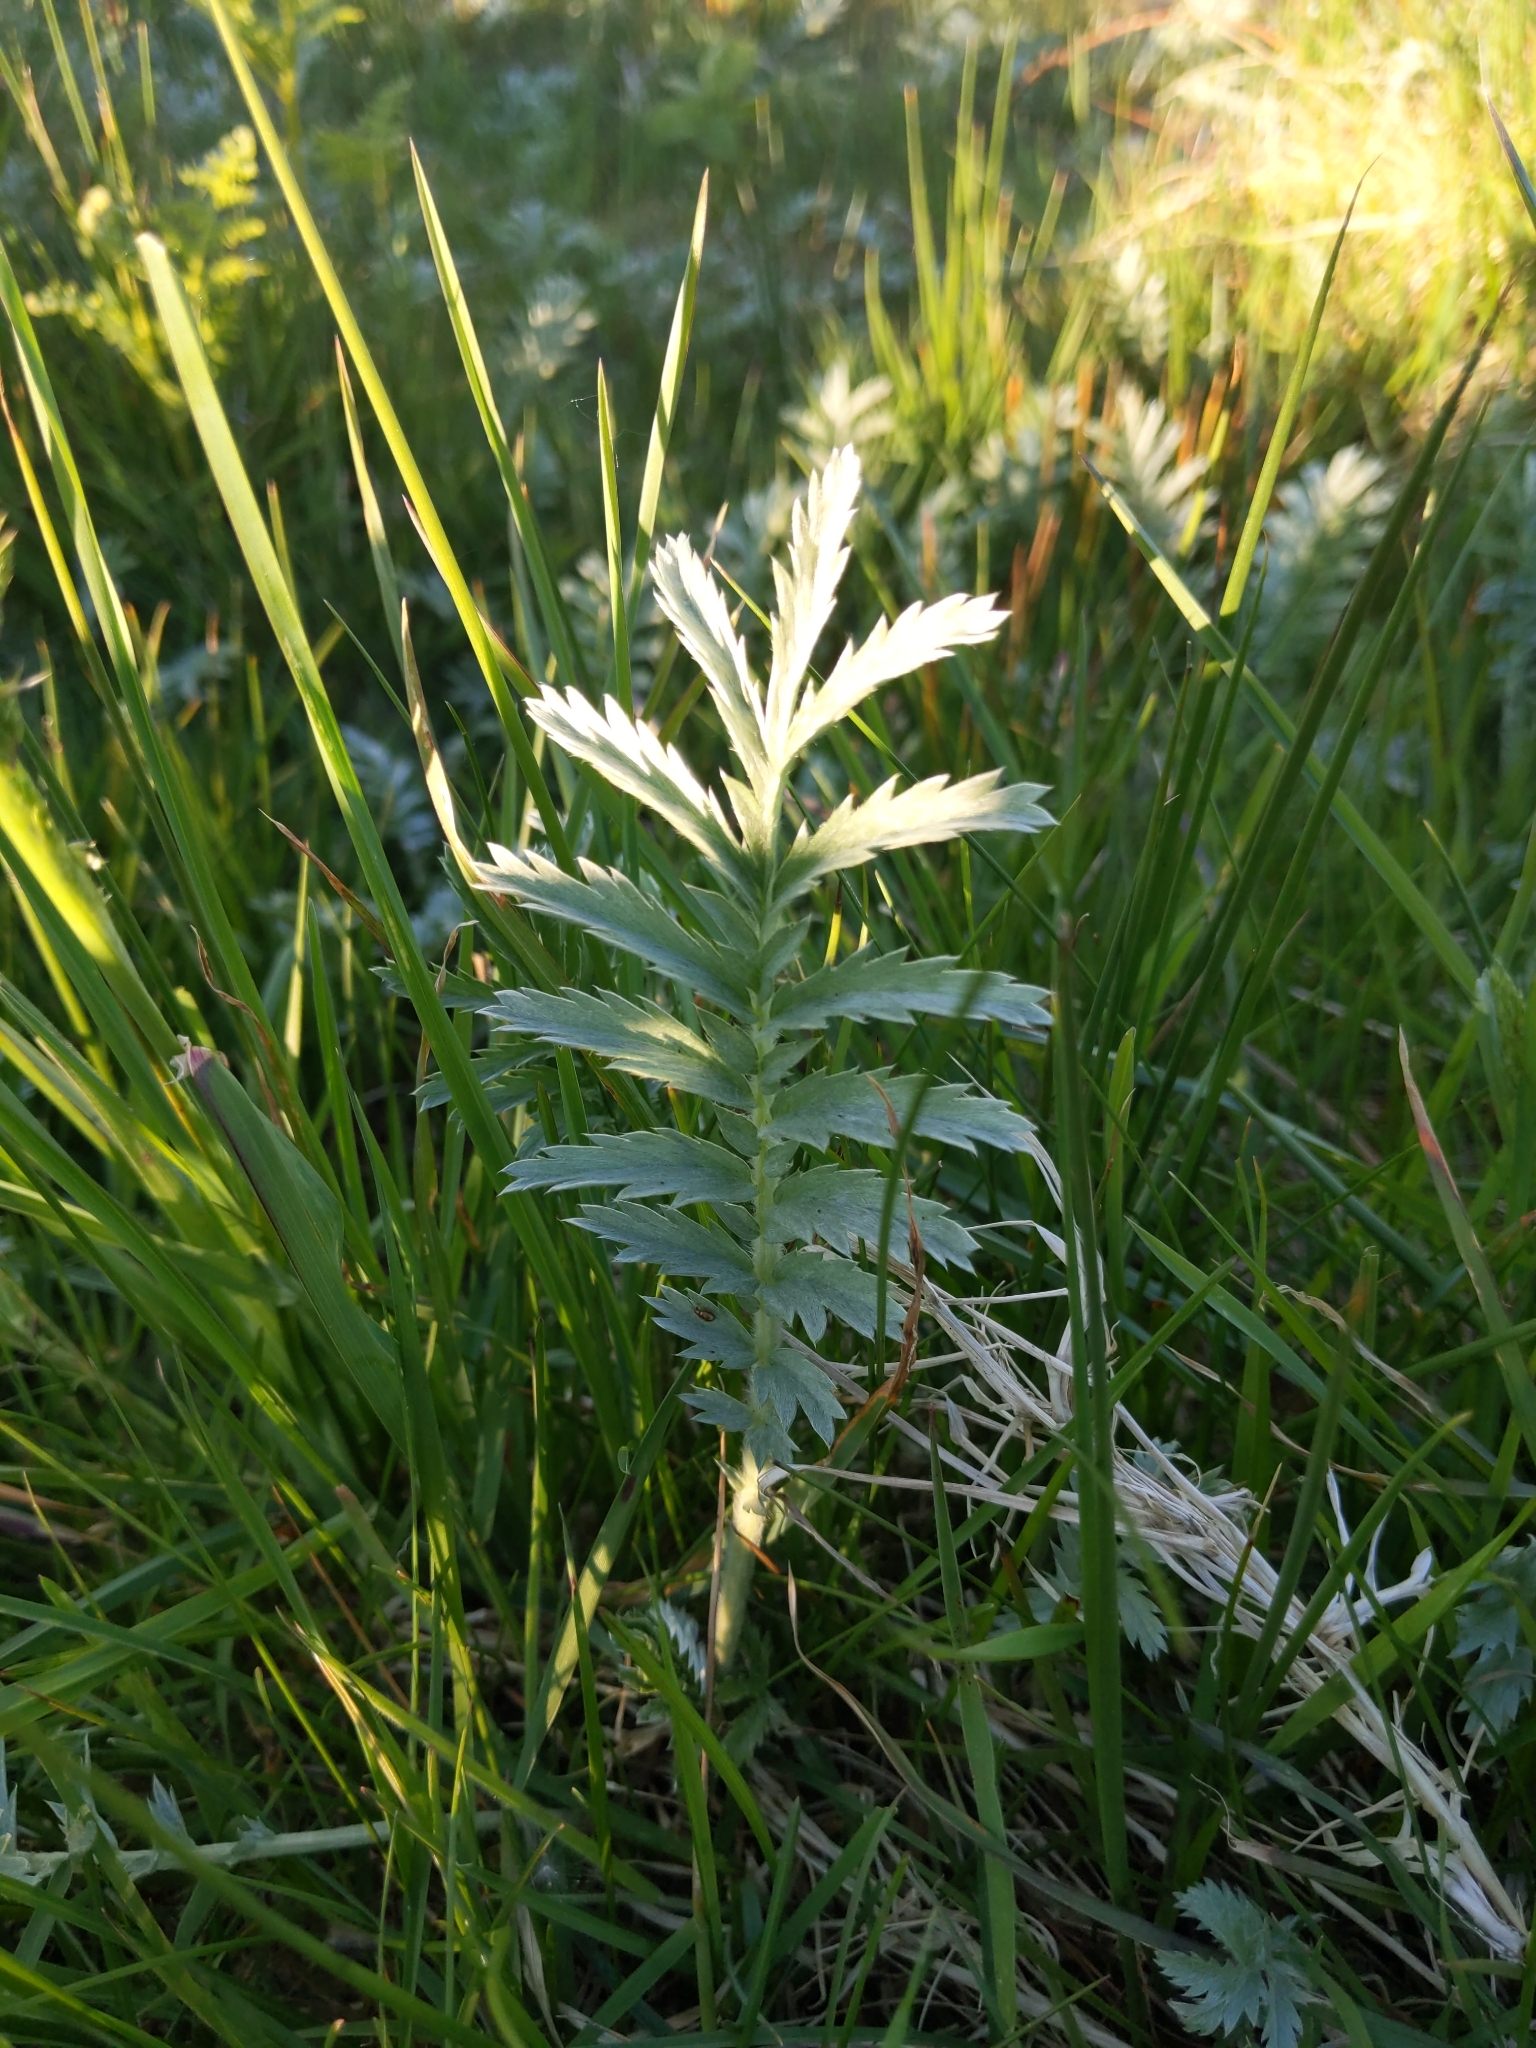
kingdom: Plantae
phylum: Tracheophyta
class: Magnoliopsida
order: Rosales
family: Rosaceae
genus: Argentina
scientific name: Argentina anserina
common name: Common silverweed
